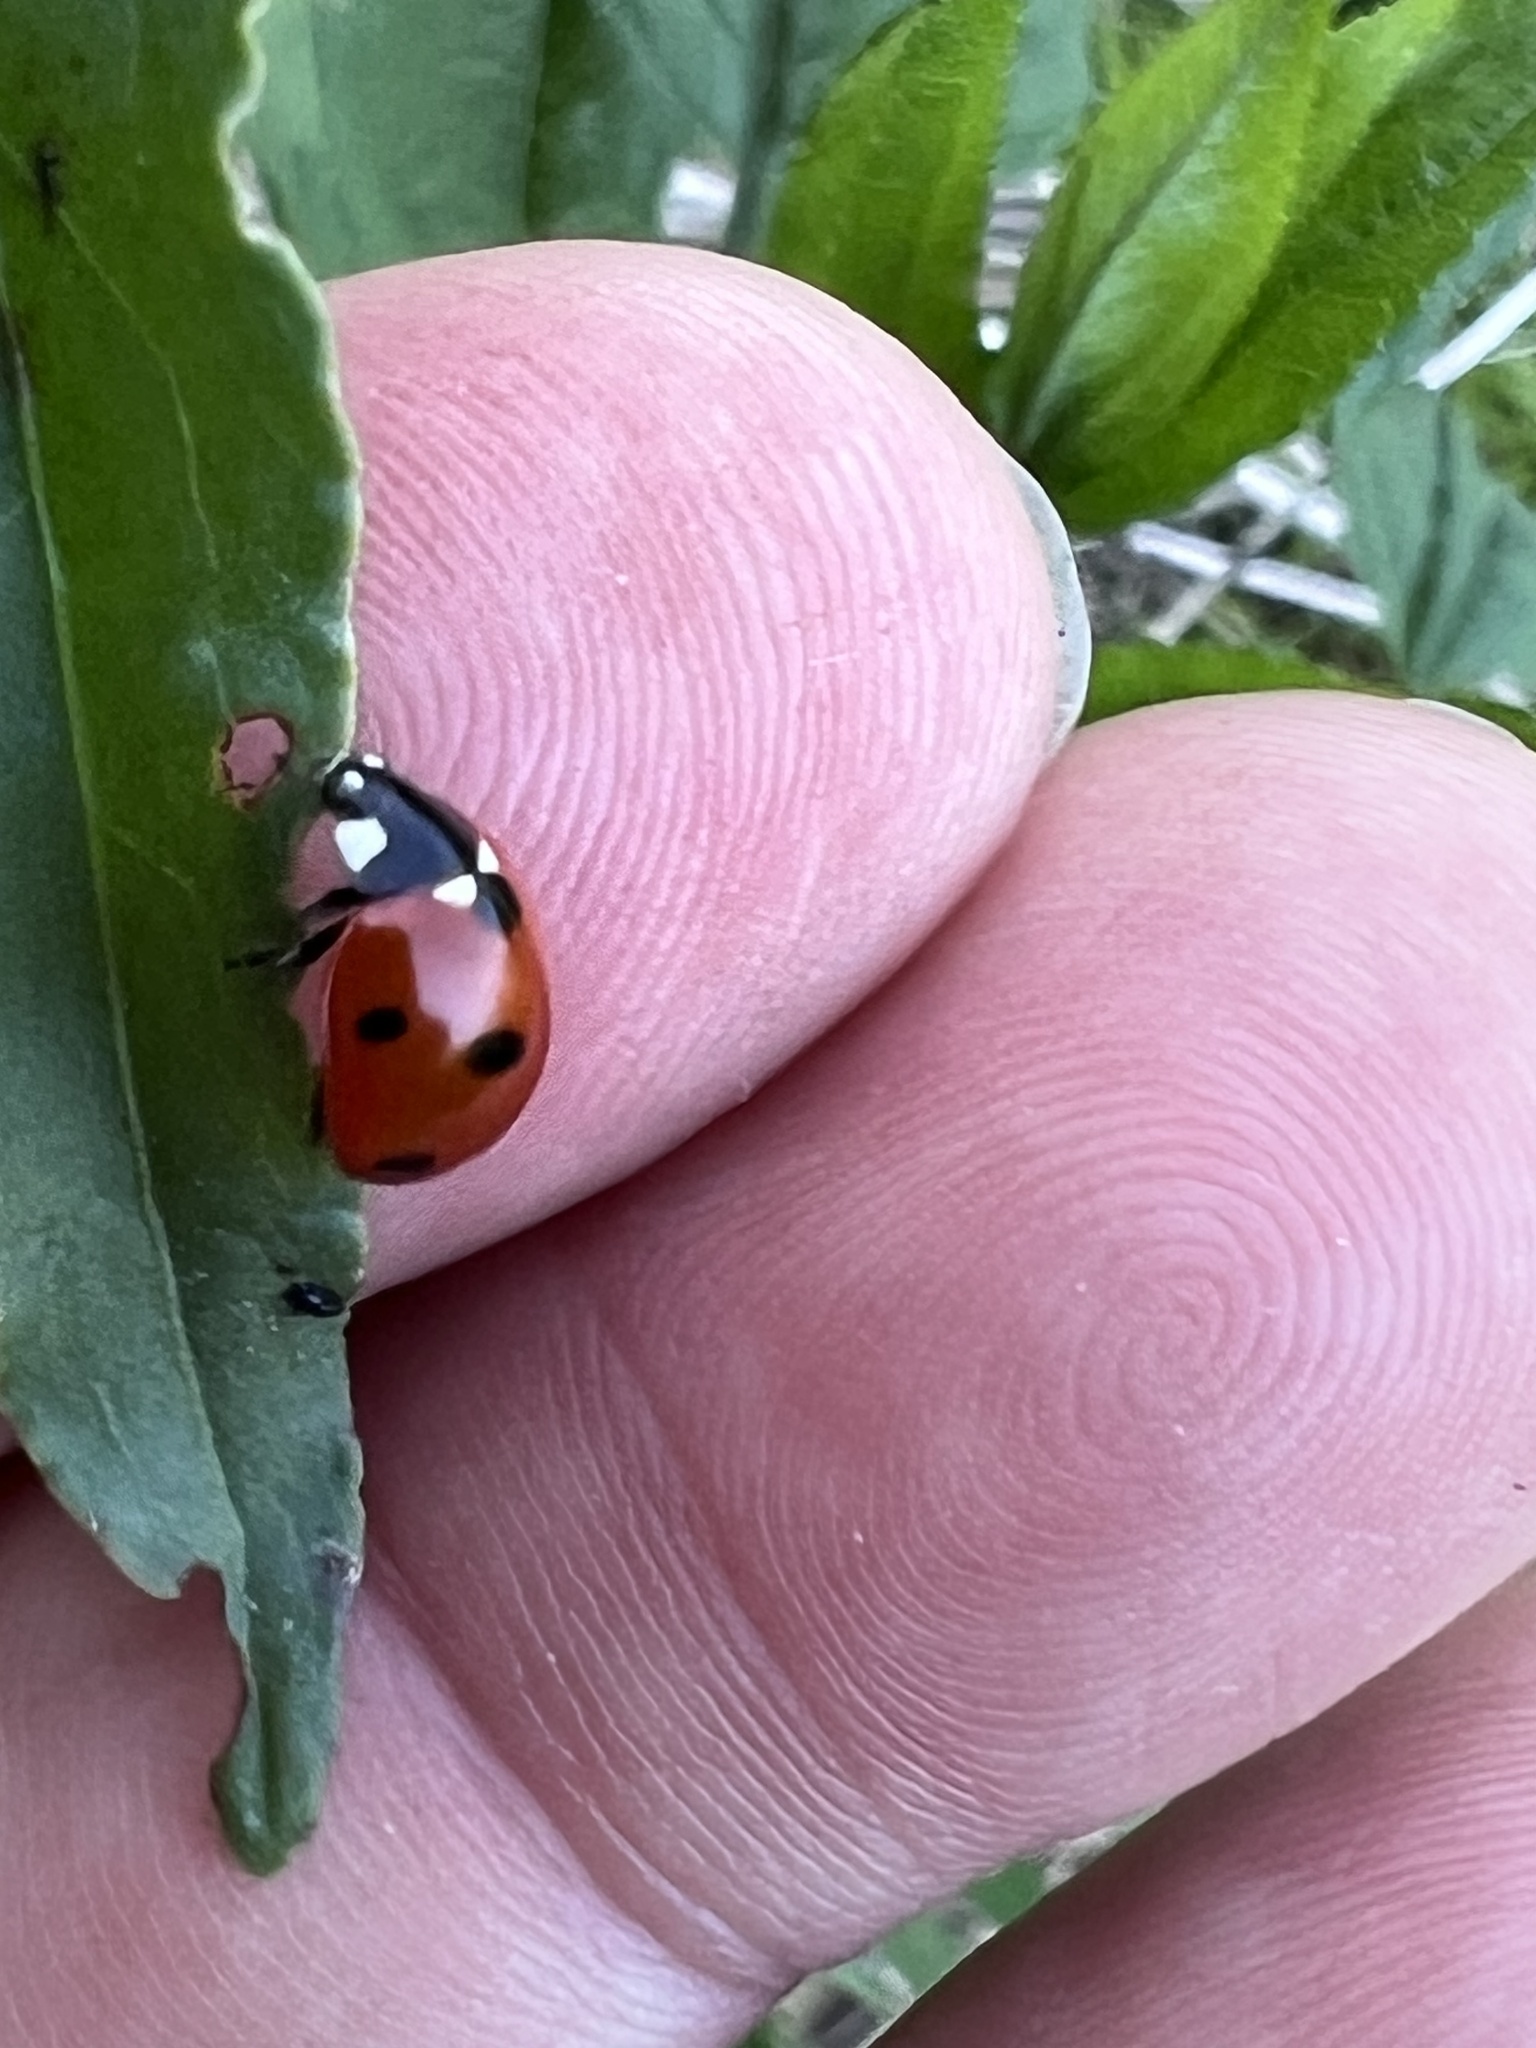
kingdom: Animalia
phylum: Arthropoda
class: Insecta
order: Coleoptera
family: Coccinellidae
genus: Coccinella
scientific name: Coccinella septempunctata
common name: Sevenspotted lady beetle
